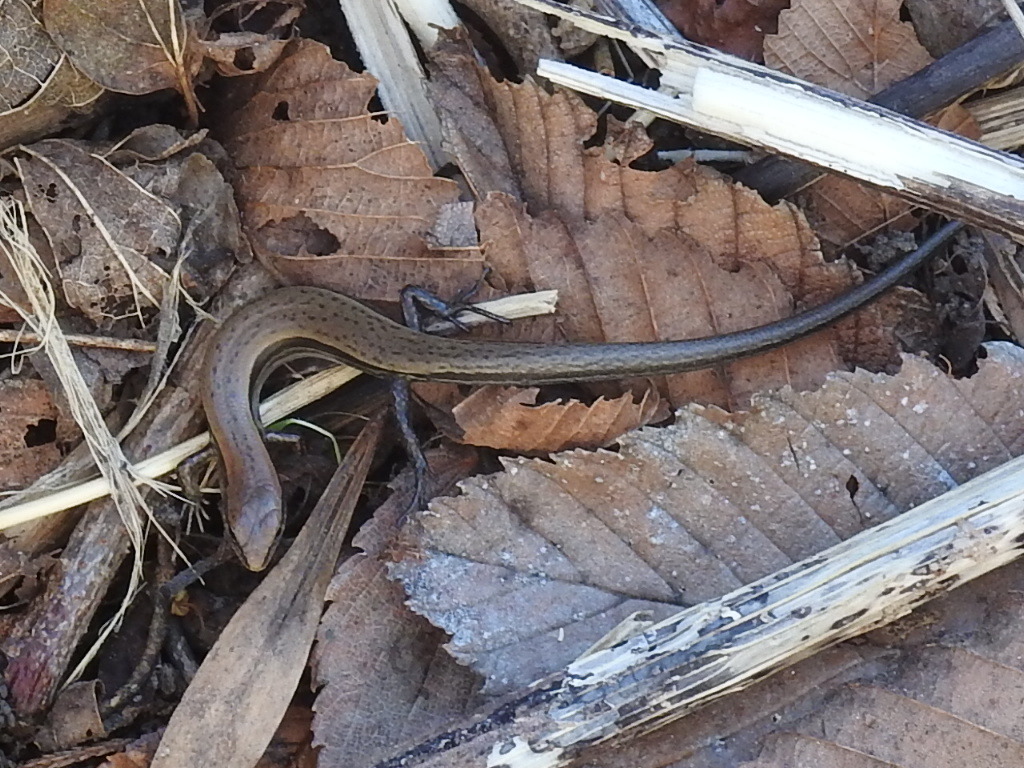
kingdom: Animalia
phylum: Chordata
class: Squamata
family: Scincidae
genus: Scincella
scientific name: Scincella lateralis
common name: Ground skink
